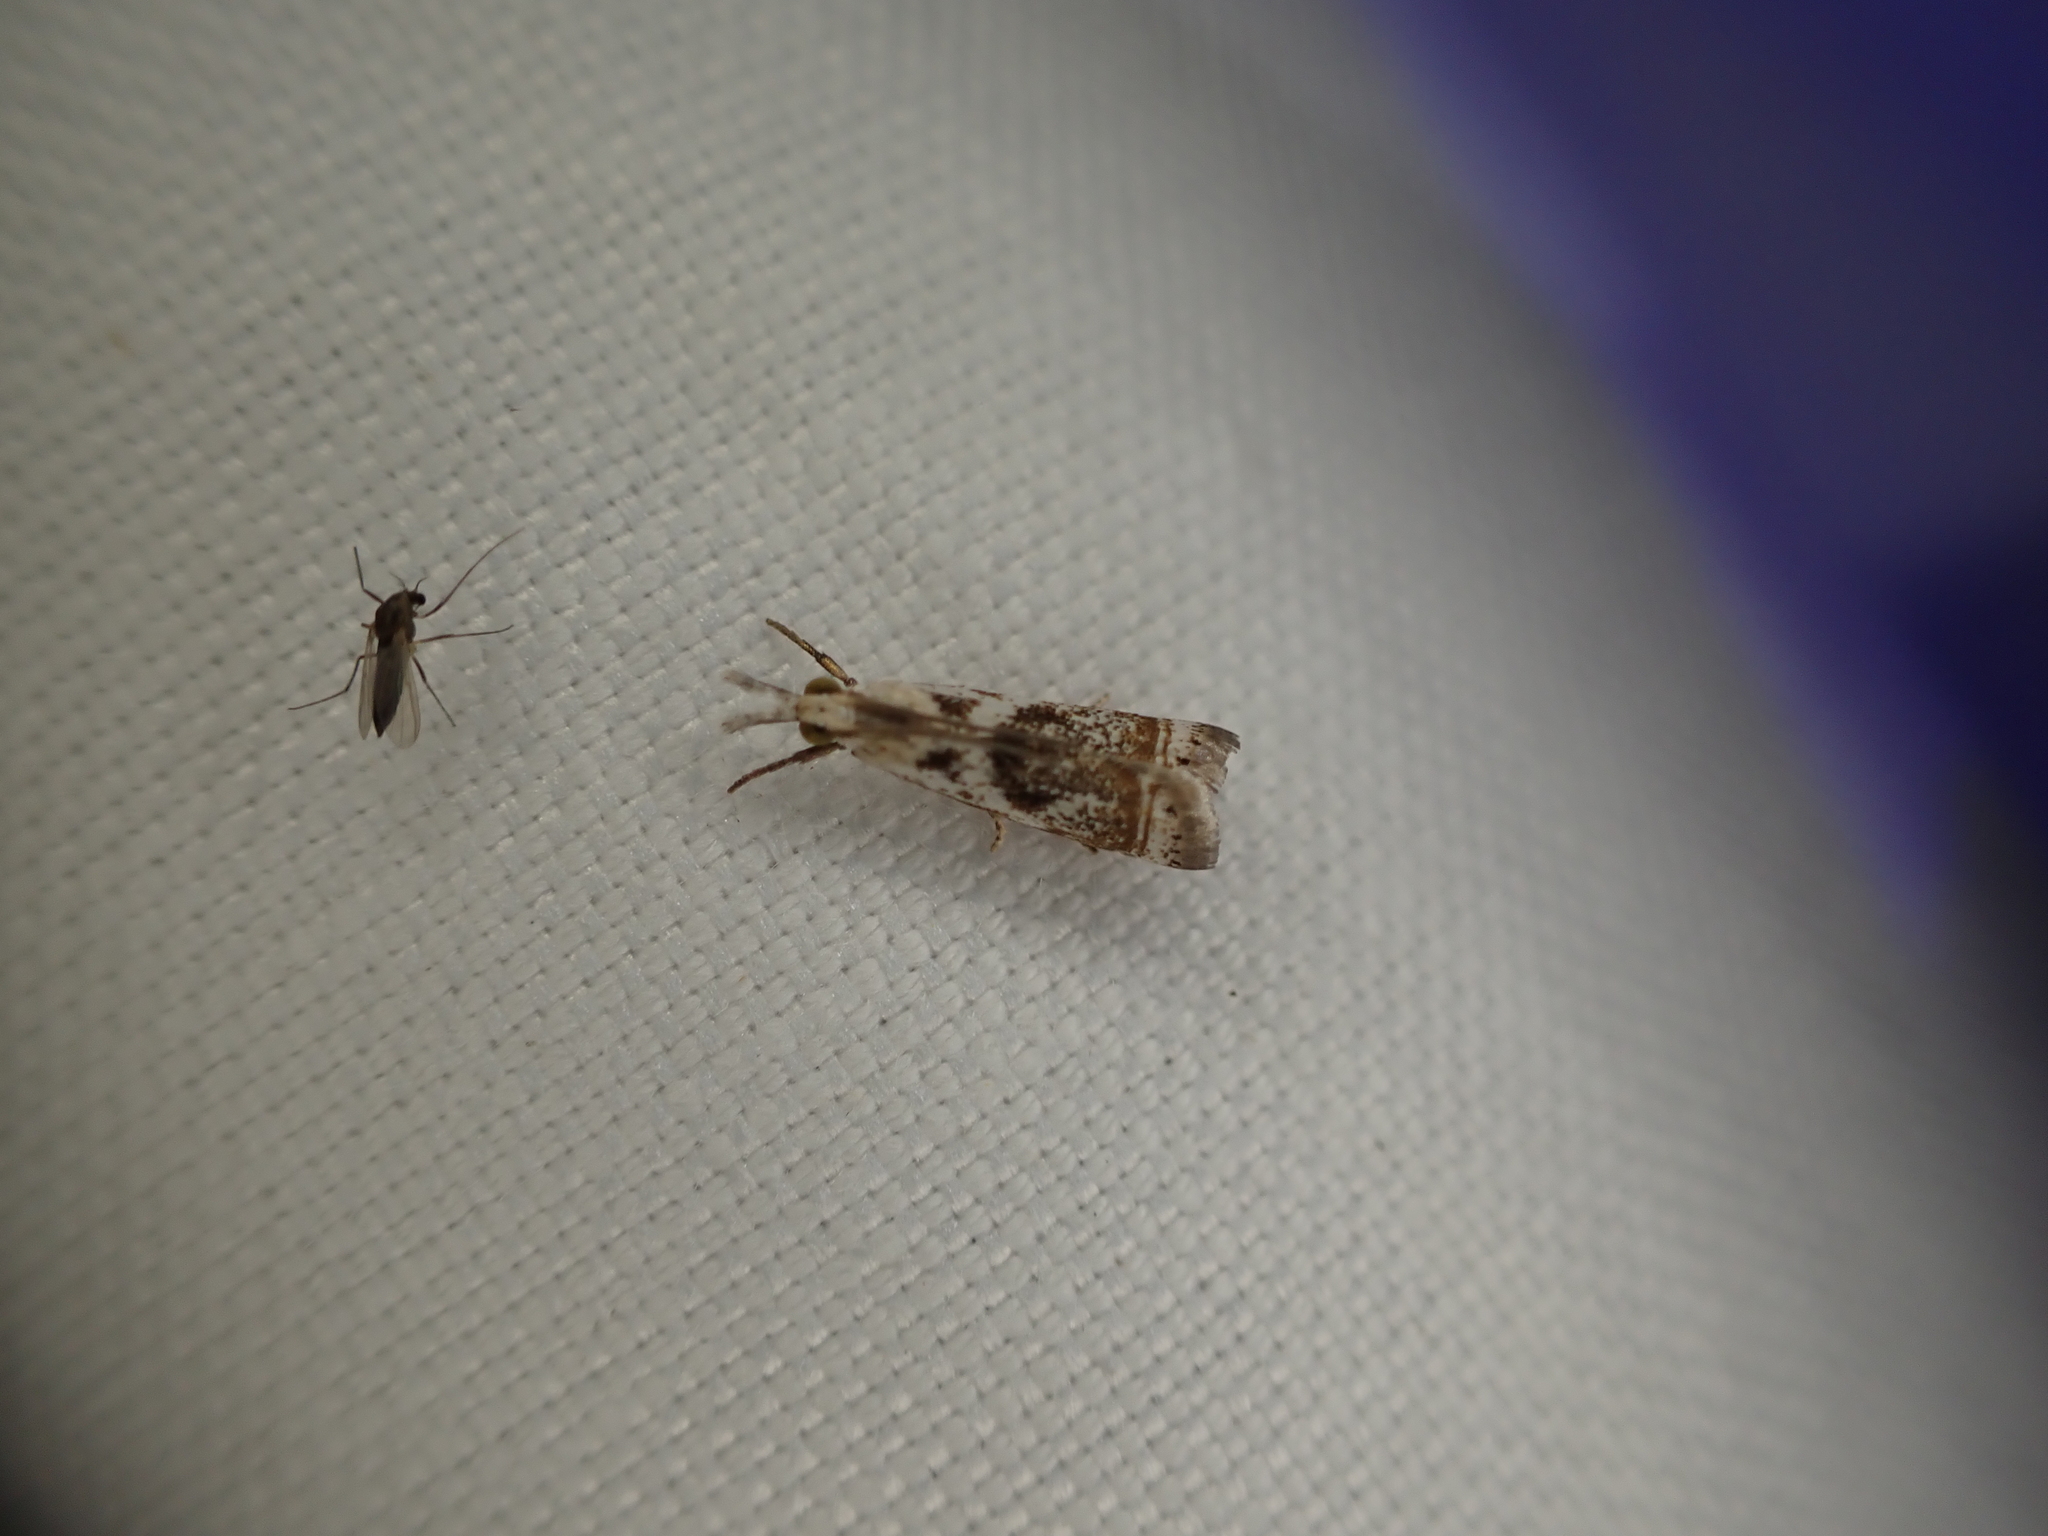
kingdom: Animalia
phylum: Arthropoda
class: Insecta
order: Lepidoptera
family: Crambidae
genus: Microcrambus
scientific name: Microcrambus elegans
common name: Elegant grass-veneer
